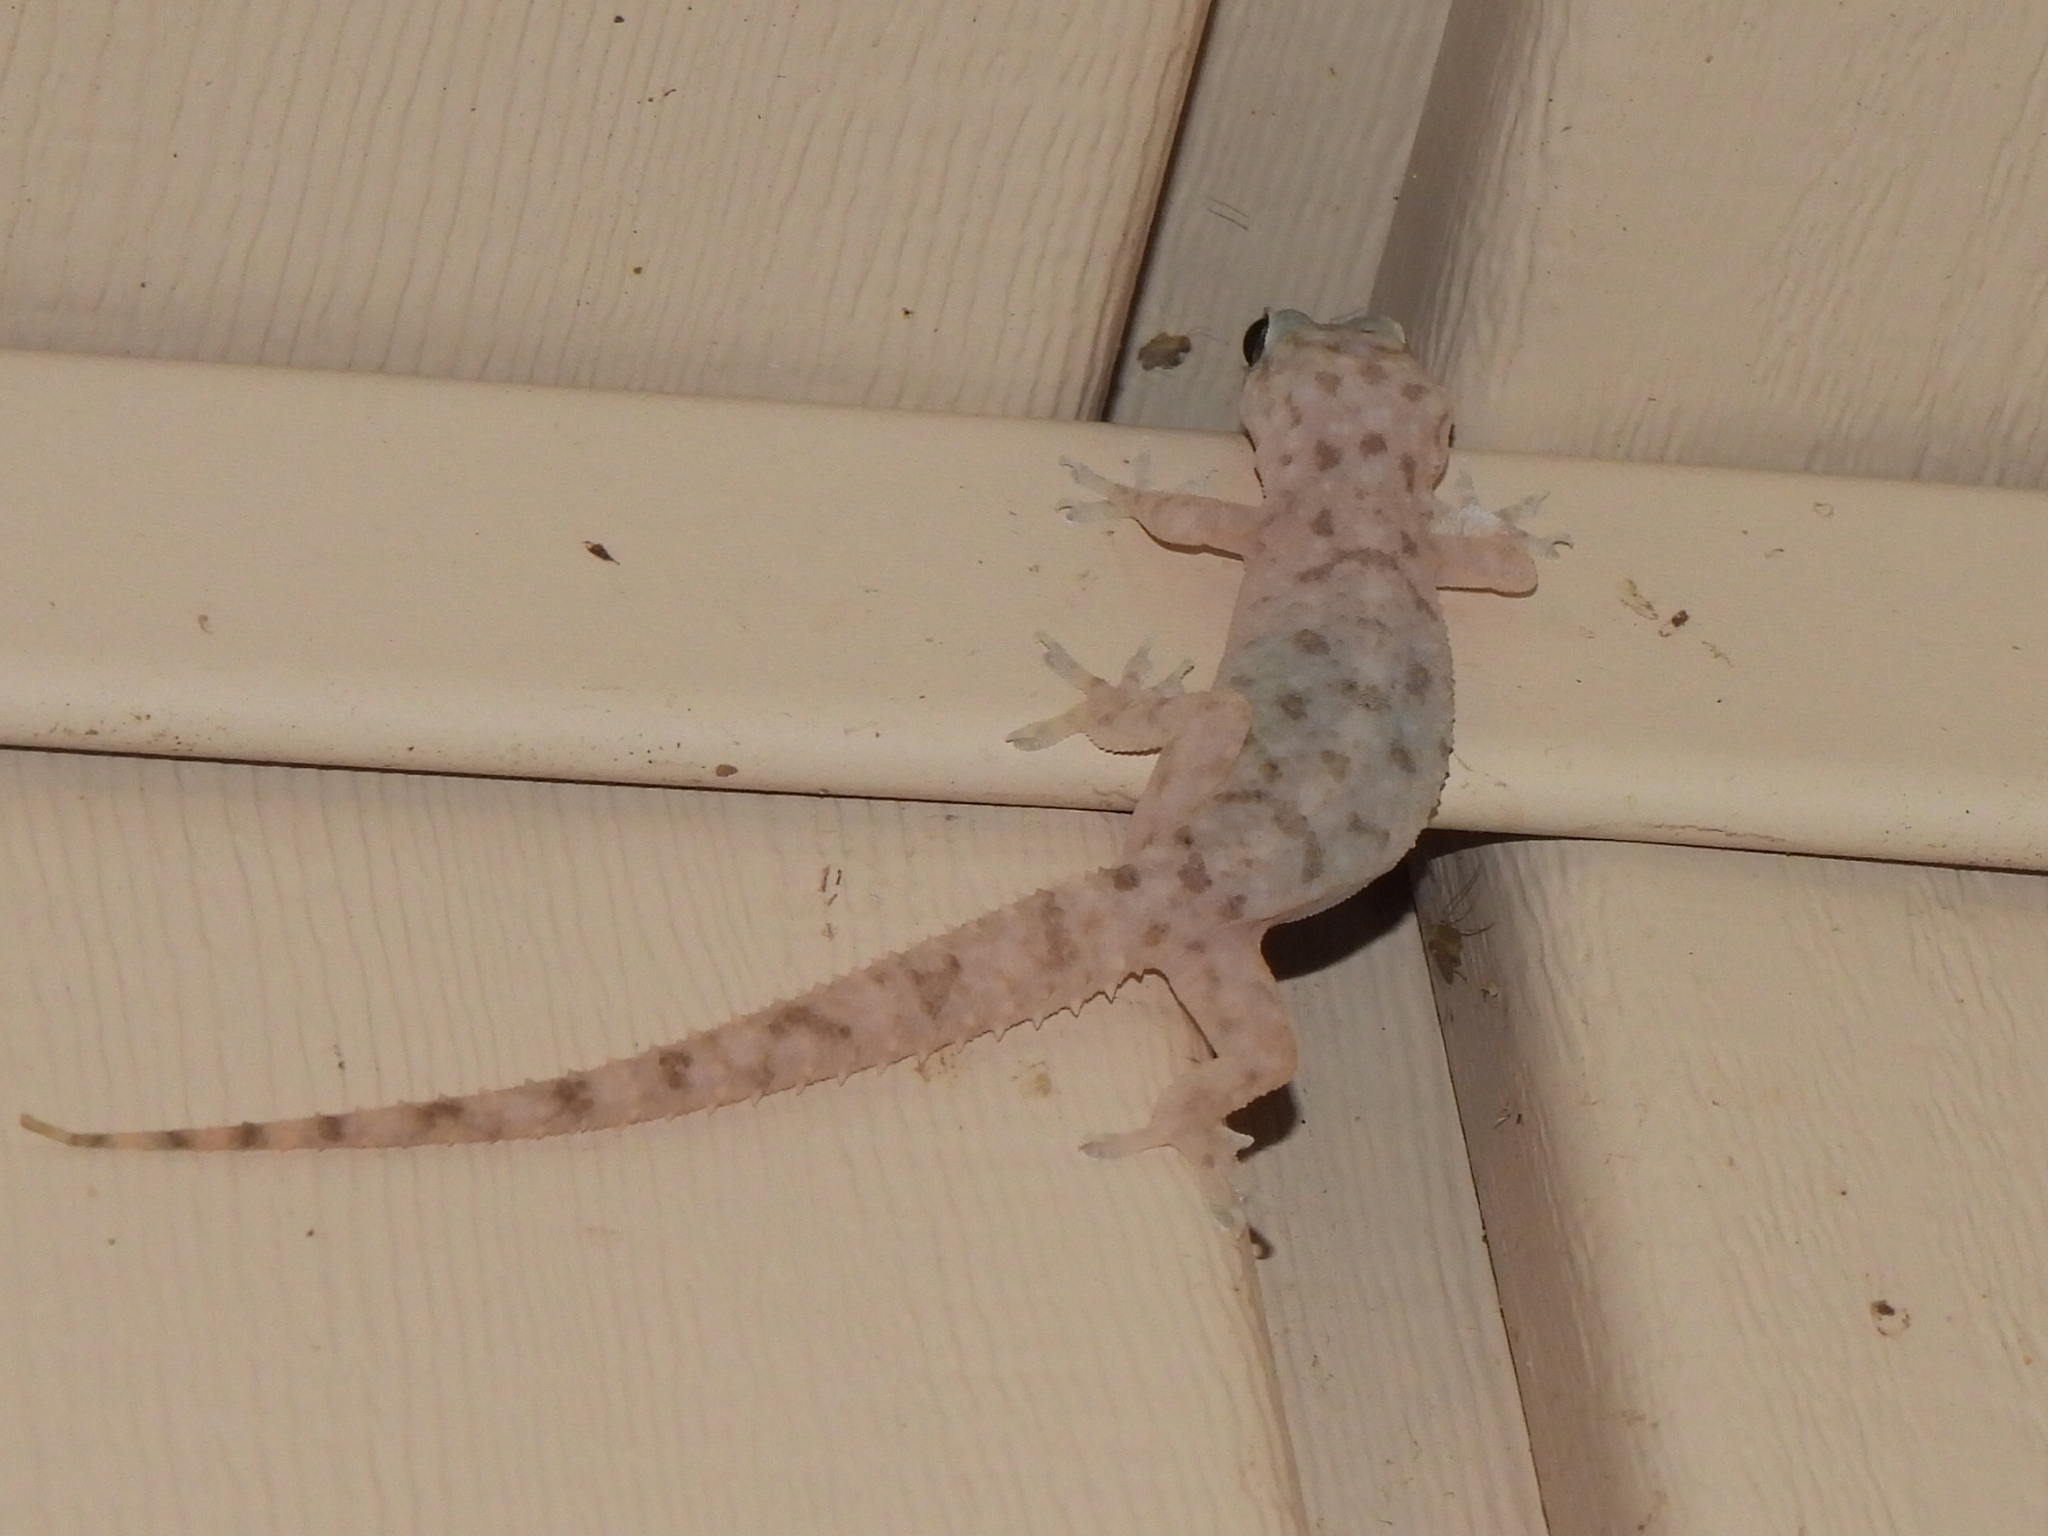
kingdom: Animalia
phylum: Chordata
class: Squamata
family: Gekkonidae
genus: Hemidactylus
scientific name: Hemidactylus parvimaculatus
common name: Spotted house gecko
